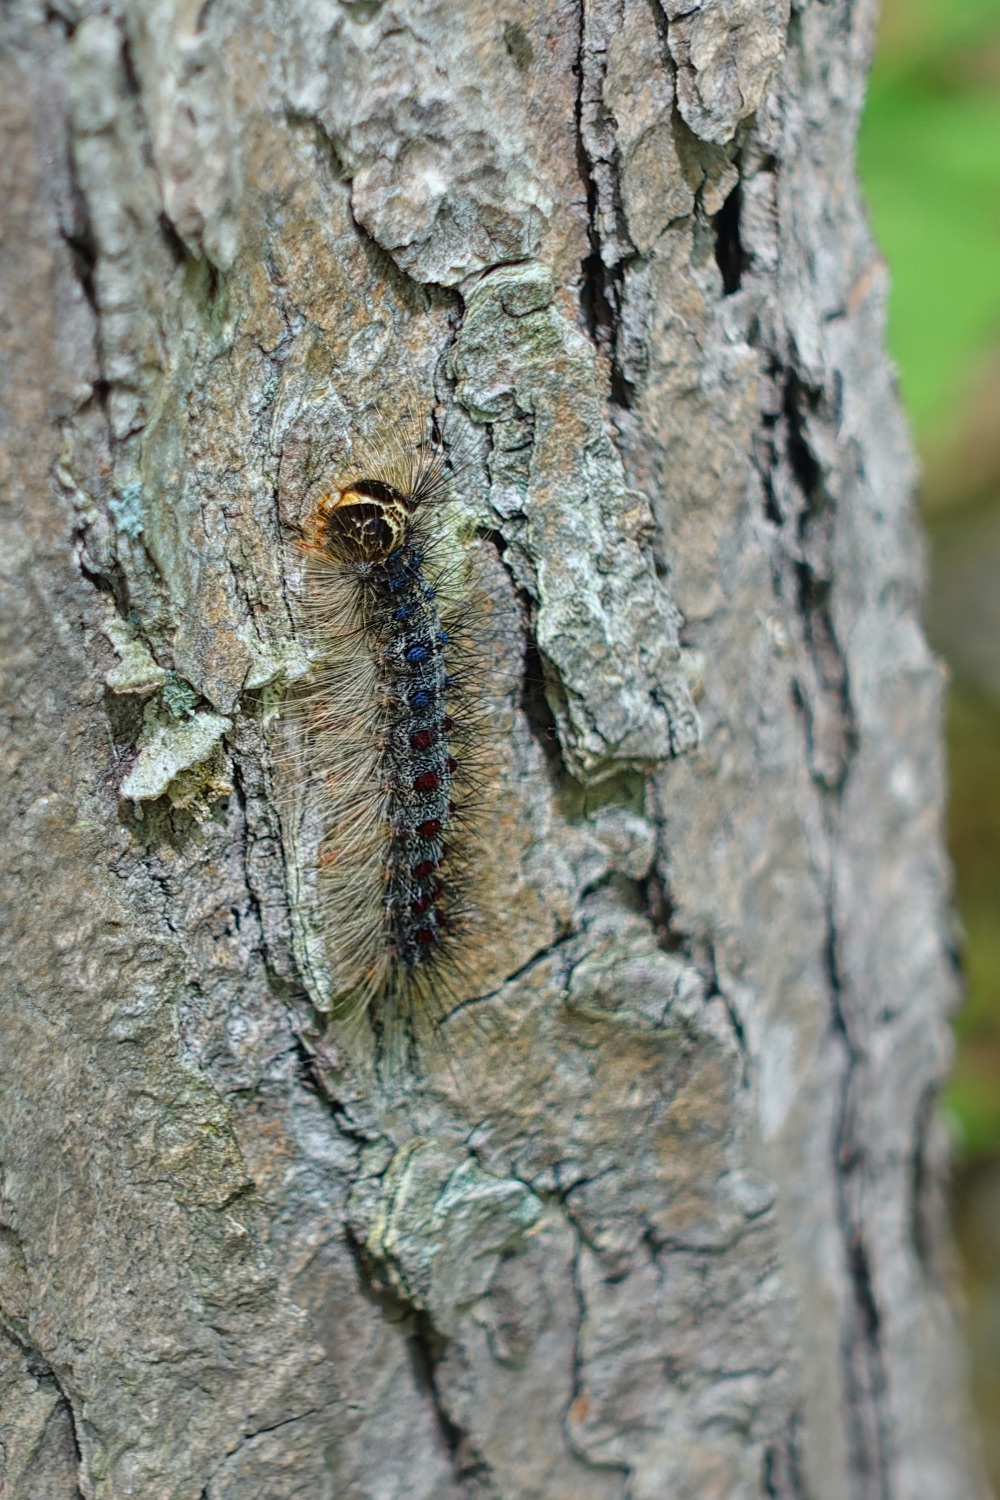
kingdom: Animalia
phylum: Arthropoda
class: Insecta
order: Lepidoptera
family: Erebidae
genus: Lymantria
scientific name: Lymantria dispar
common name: Gypsy moth
